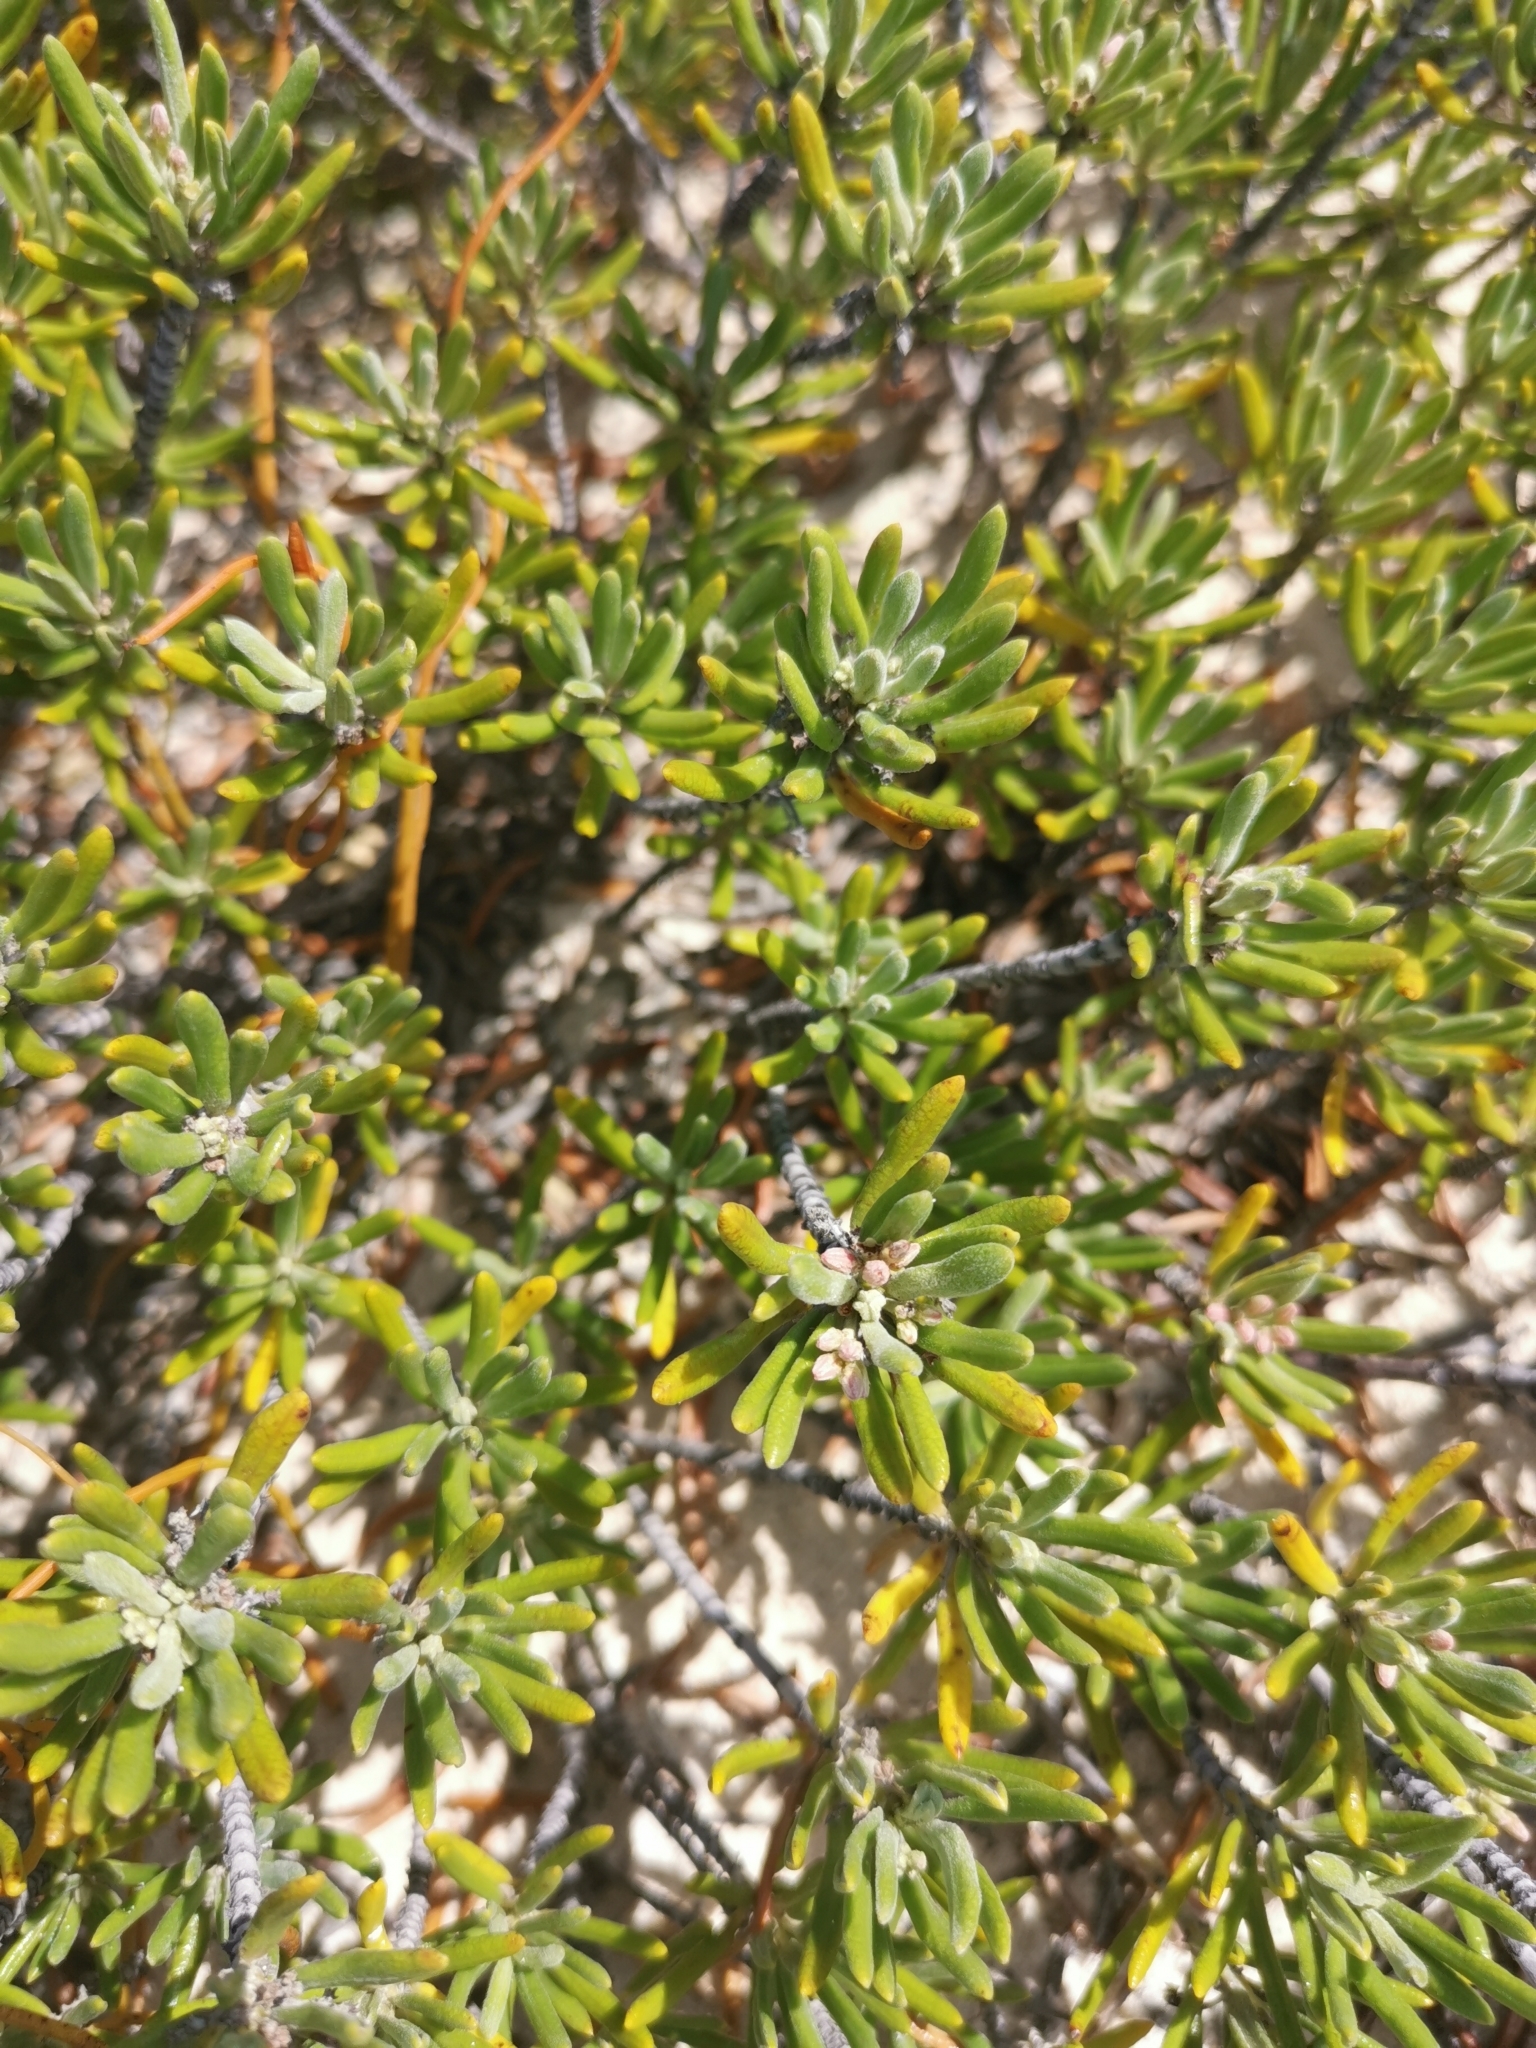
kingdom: Plantae
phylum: Tracheophyta
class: Magnoliopsida
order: Gentianales
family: Rubiaceae
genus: Strumpfia
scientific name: Strumpfia maritima
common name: Pride-of-big pine
